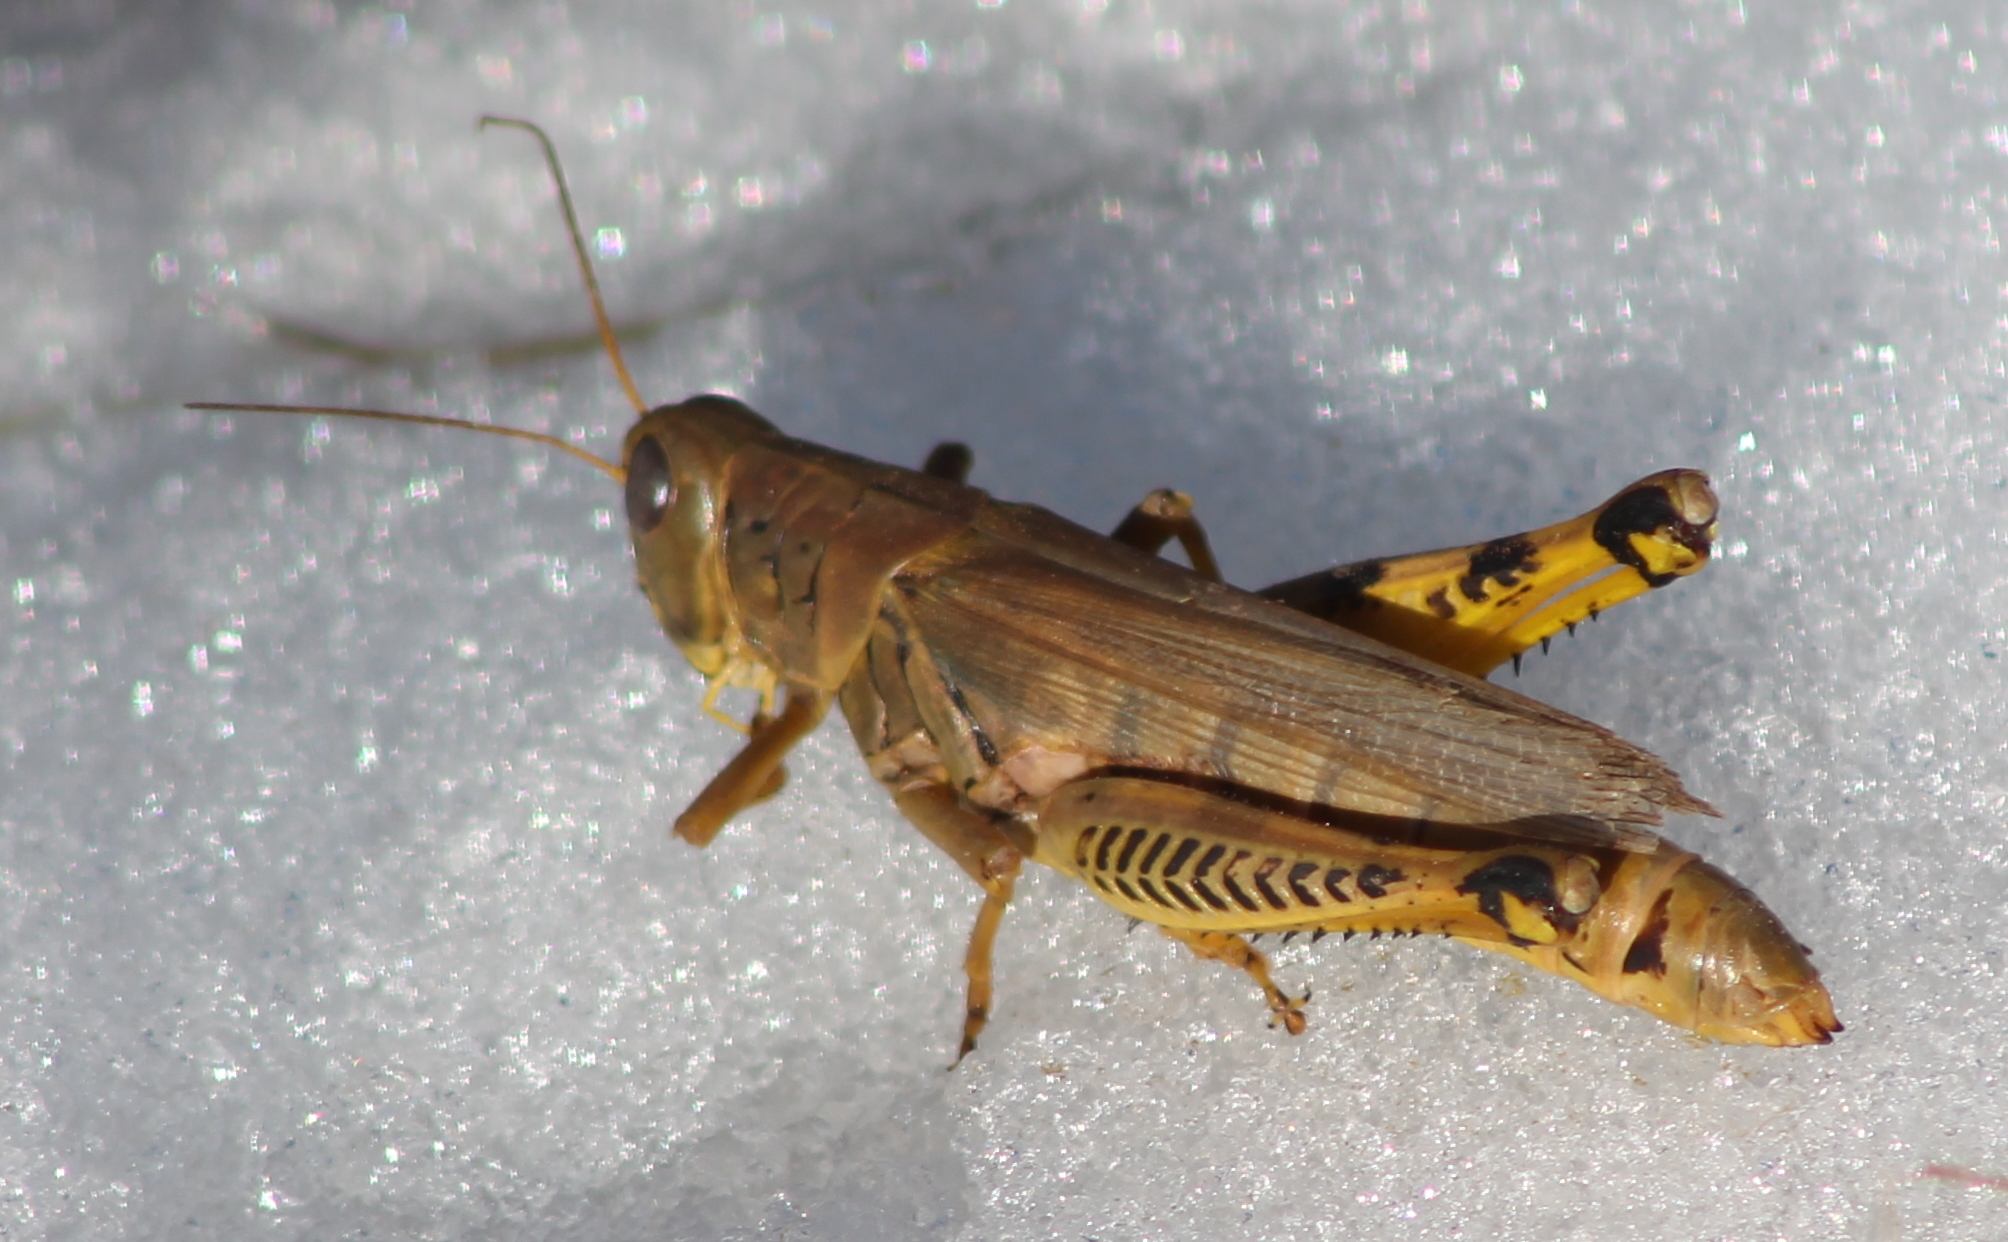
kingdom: Animalia
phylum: Arthropoda
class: Insecta
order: Orthoptera
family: Acrididae
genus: Melanoplus
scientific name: Melanoplus differentialis
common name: Differential grasshopper
